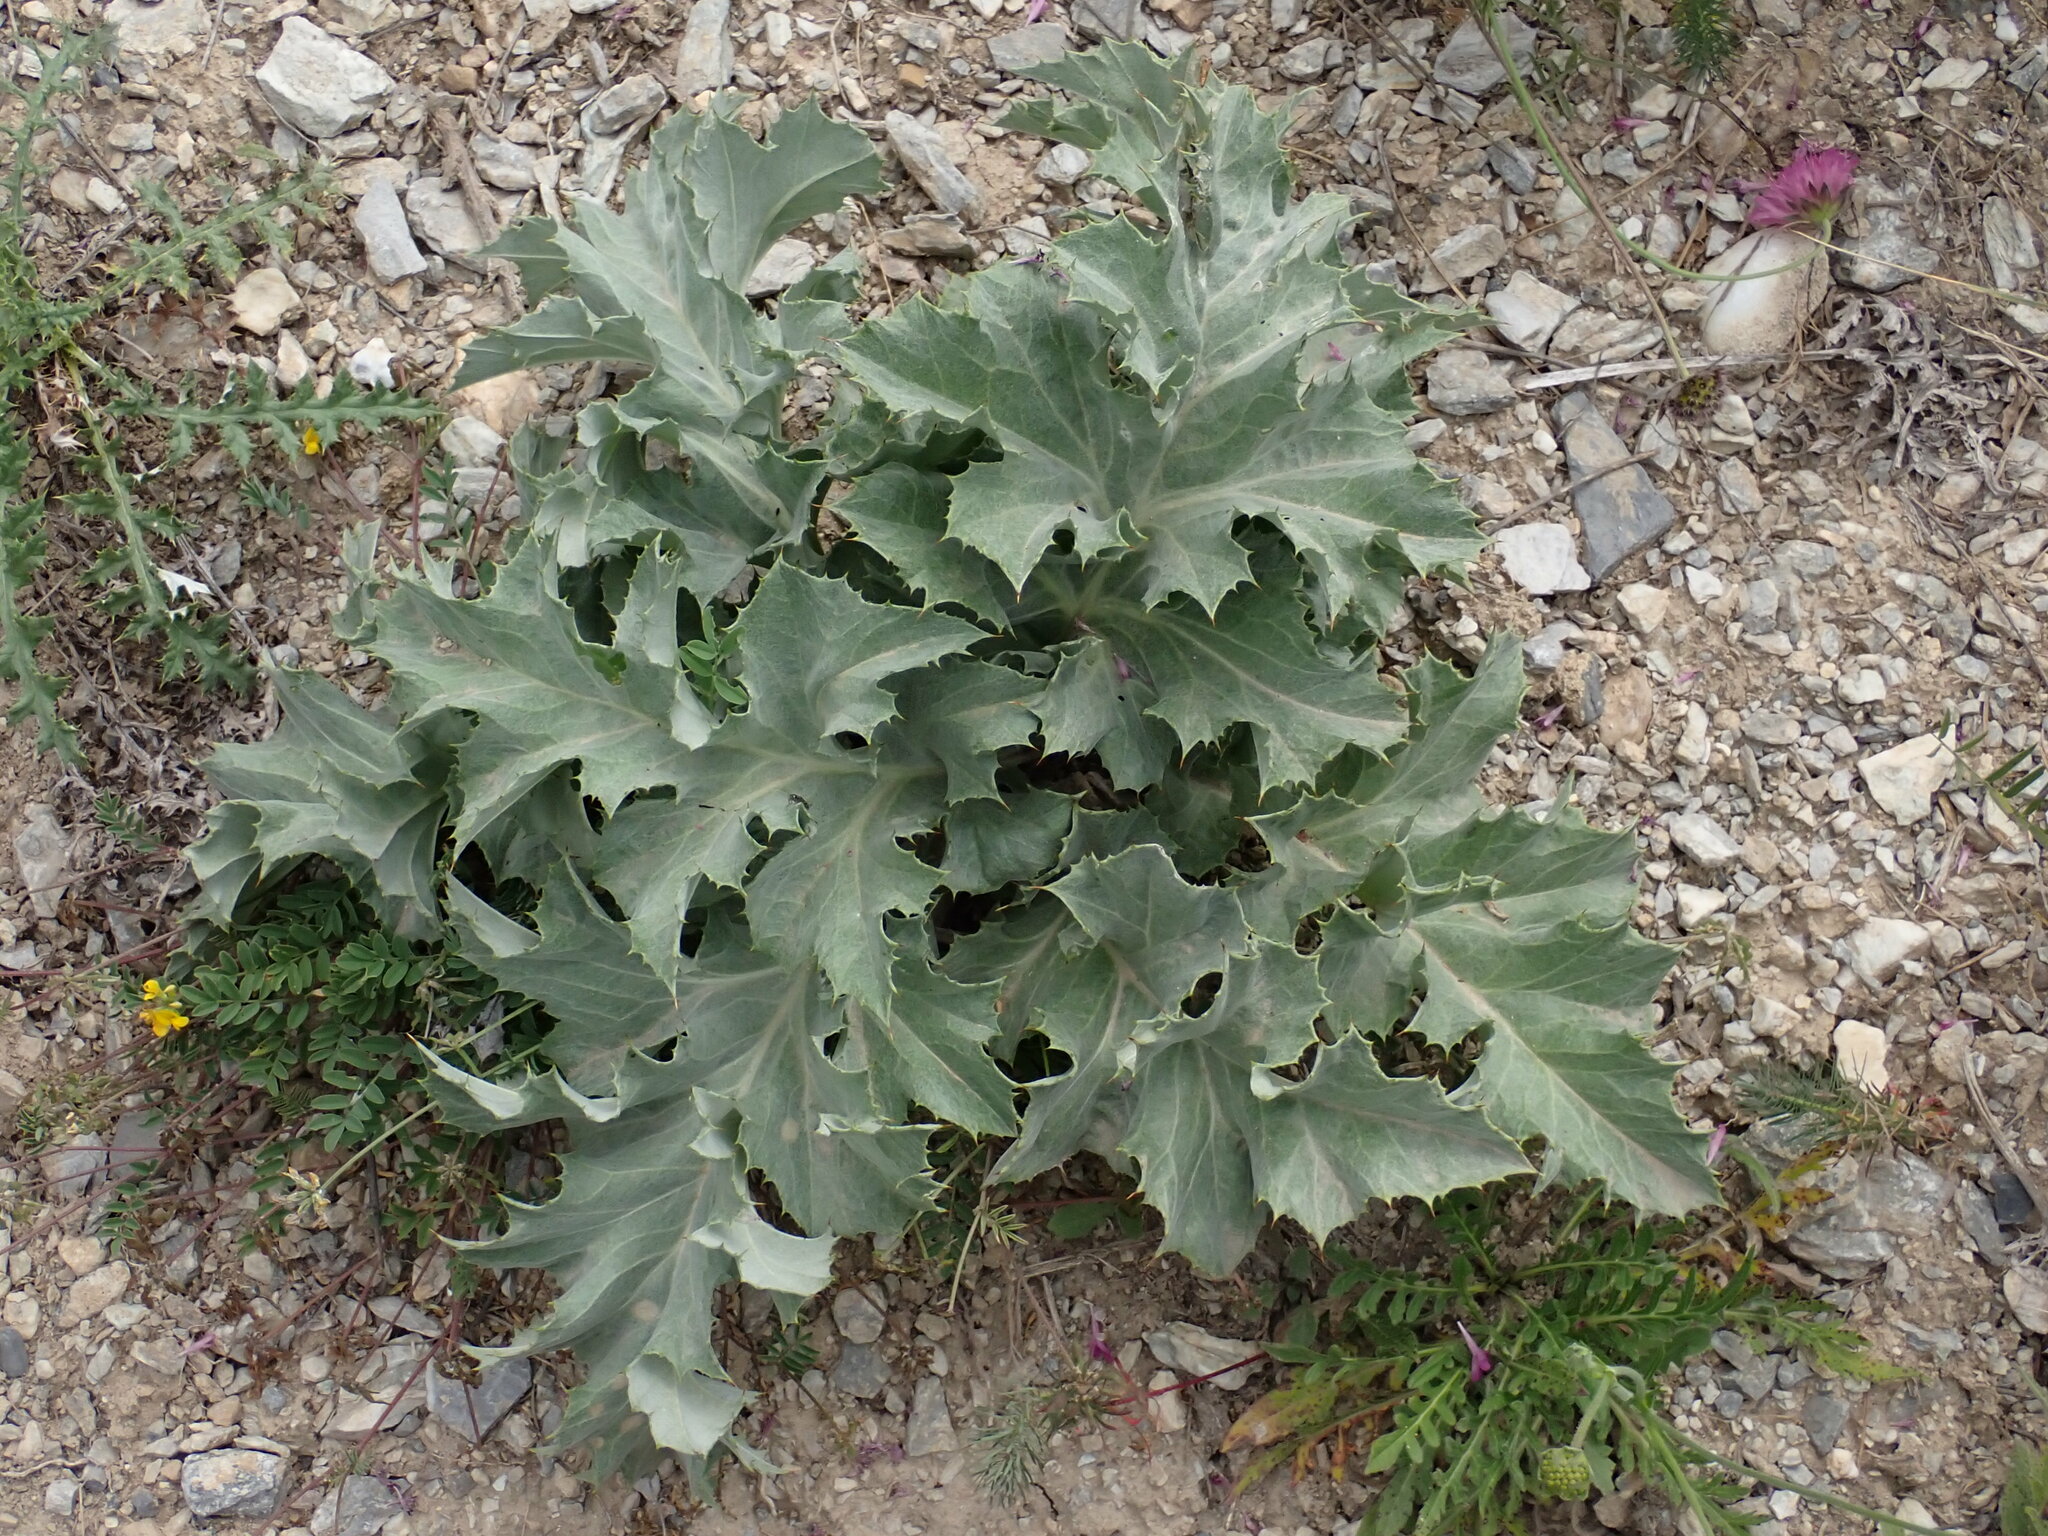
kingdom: Plantae
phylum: Tracheophyta
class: Magnoliopsida
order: Asterales
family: Asteraceae
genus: Carlina
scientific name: Carlina acanthifolia
